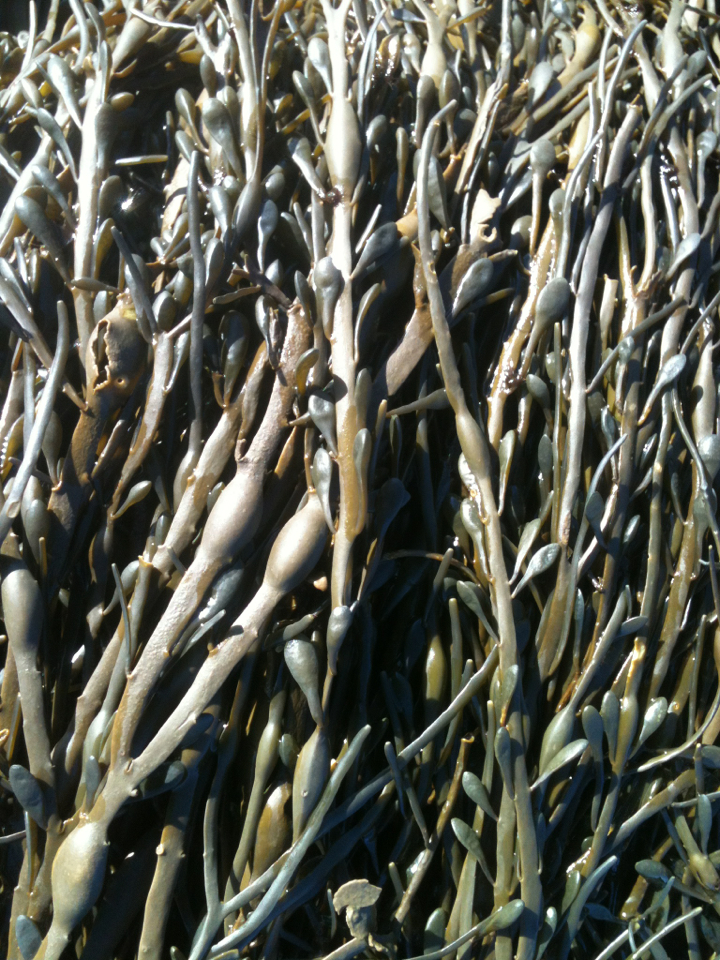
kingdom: Chromista
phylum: Ochrophyta
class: Phaeophyceae
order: Fucales
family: Fucaceae
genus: Ascophyllum
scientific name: Ascophyllum nodosum
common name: Knotted wrack
